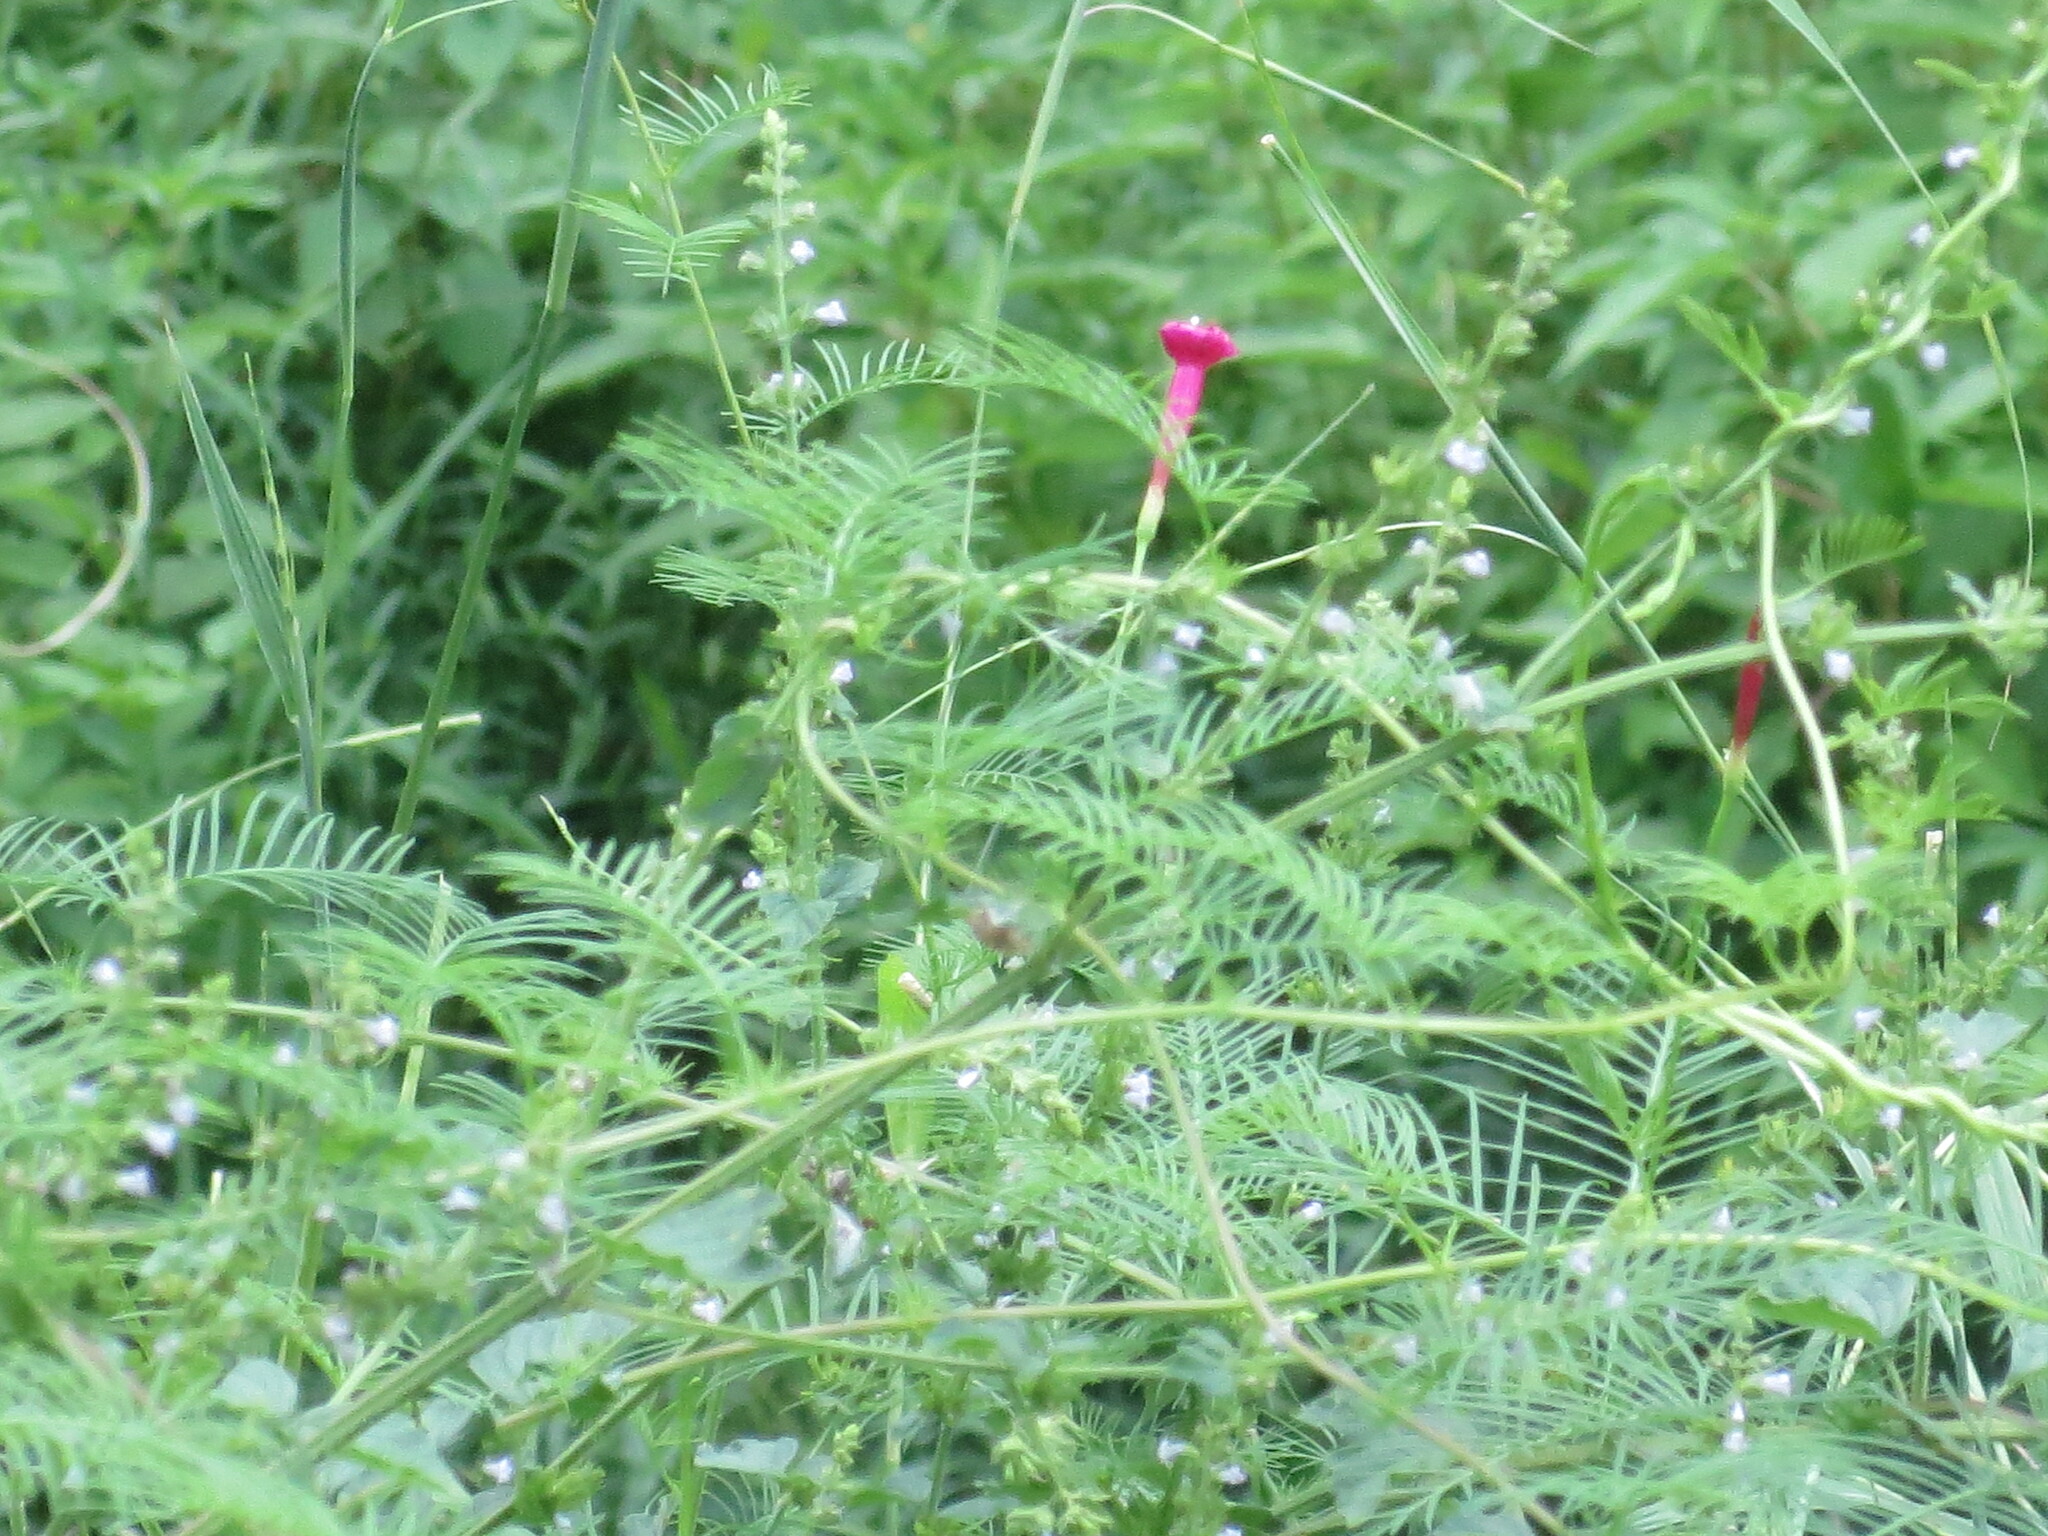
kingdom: Plantae
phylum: Tracheophyta
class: Magnoliopsida
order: Solanales
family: Convolvulaceae
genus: Ipomoea
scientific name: Ipomoea quamoclit
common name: Cypress vine
